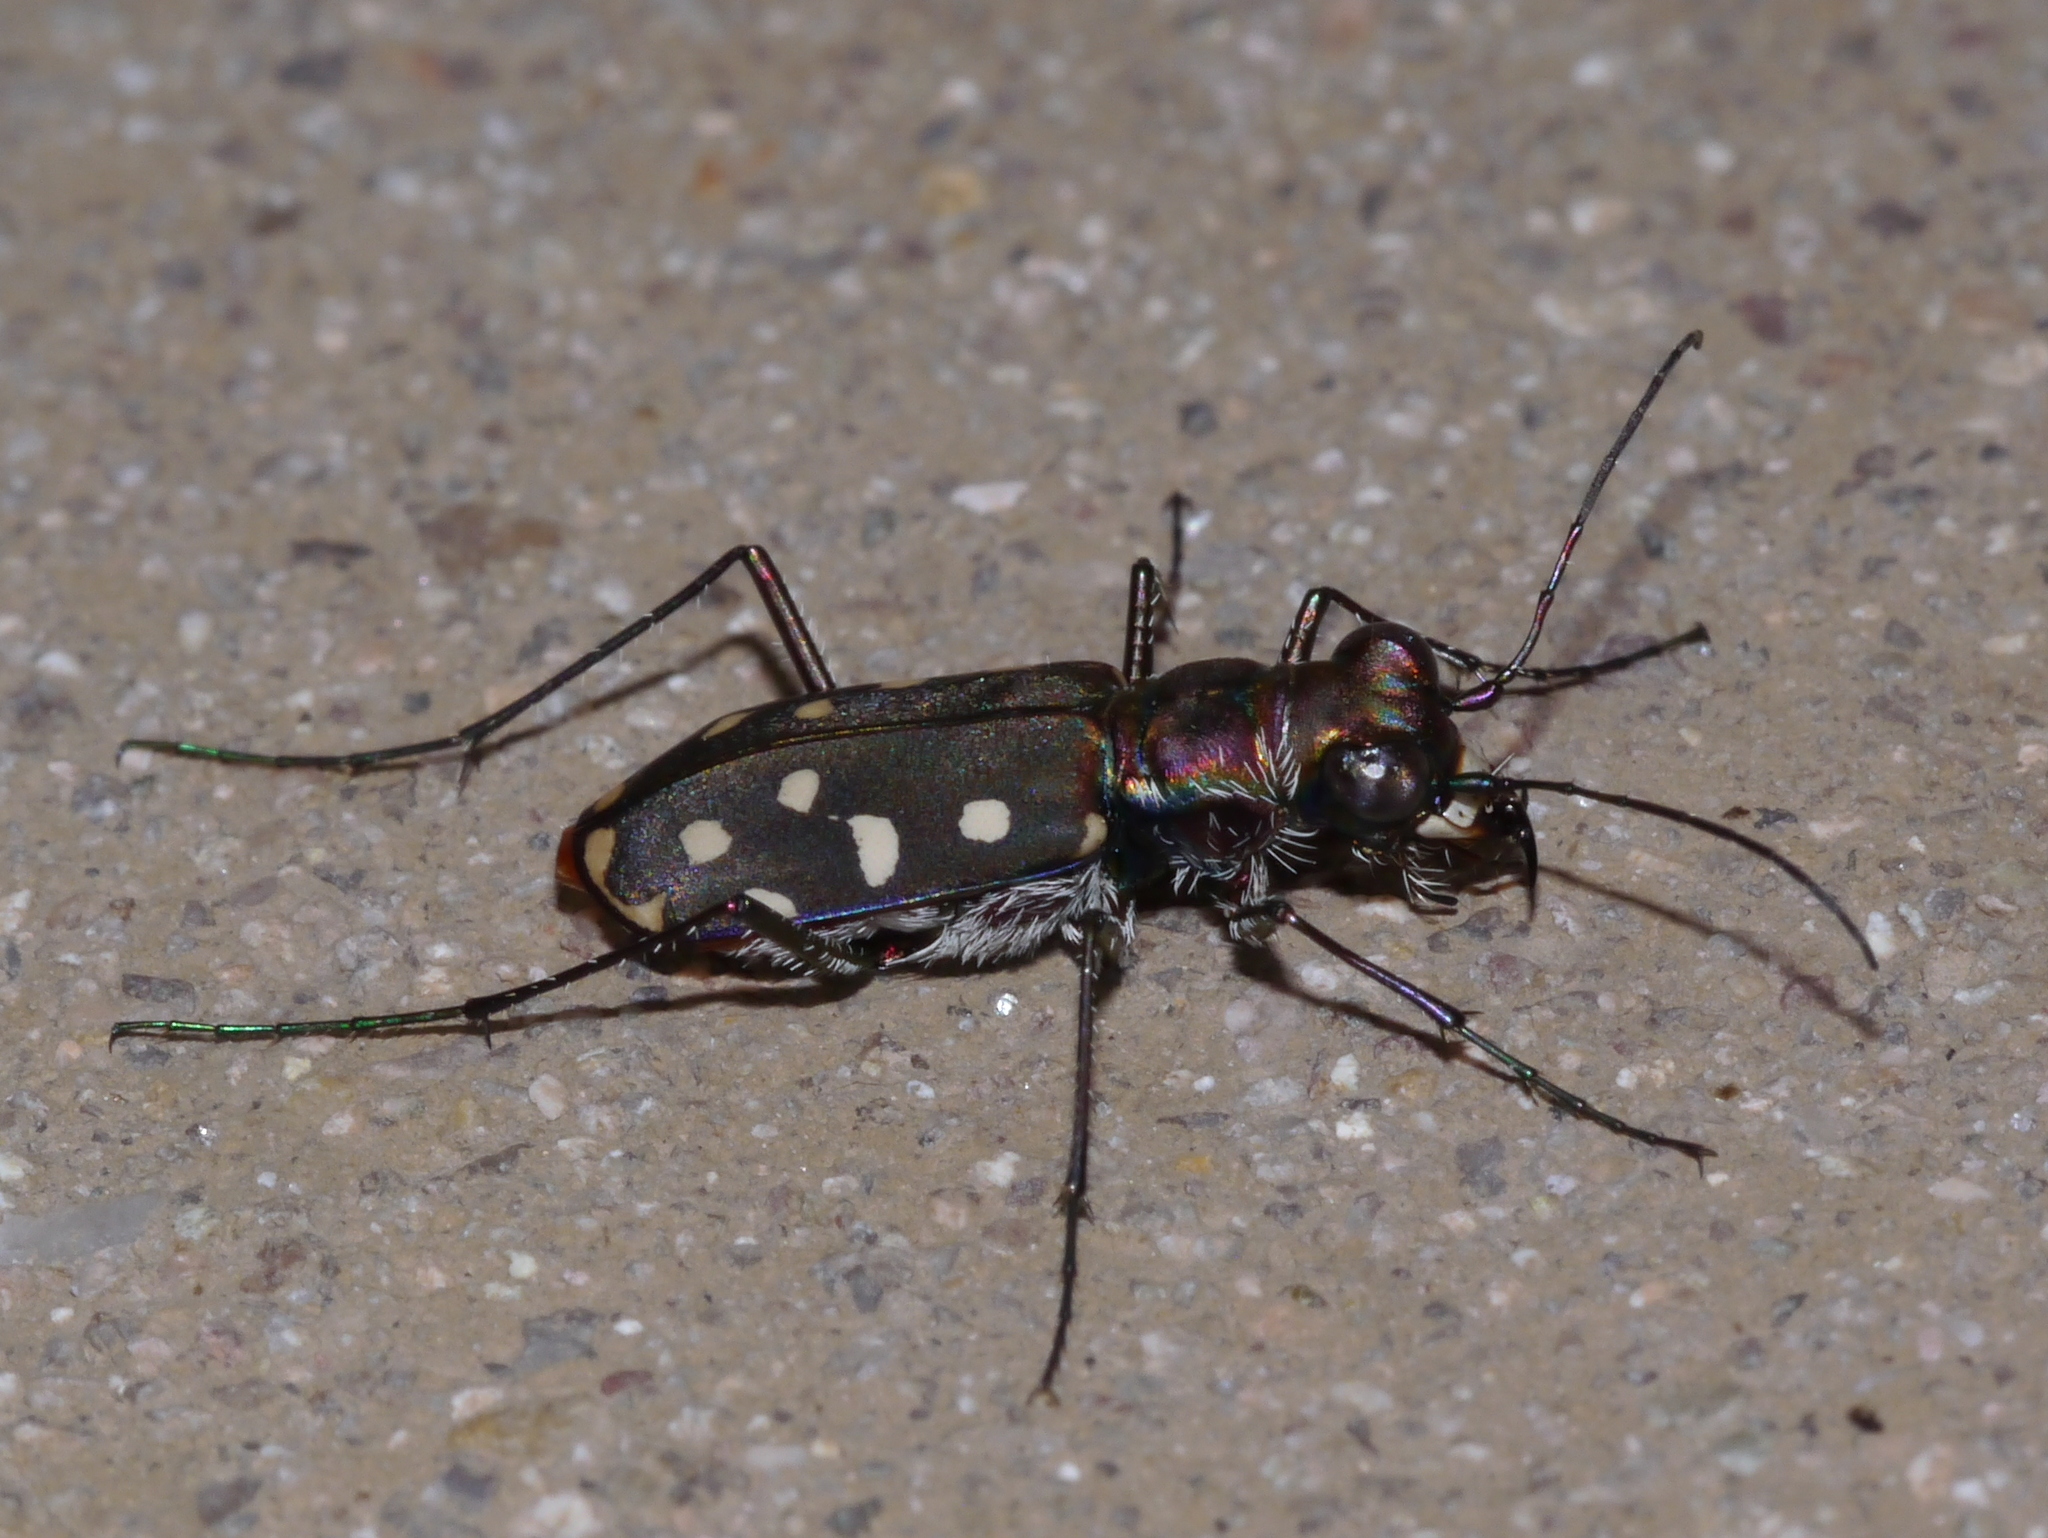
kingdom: Animalia
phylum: Arthropoda
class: Insecta
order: Coleoptera
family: Carabidae
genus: Cicindela
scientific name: Cicindela sedecimpunctata
